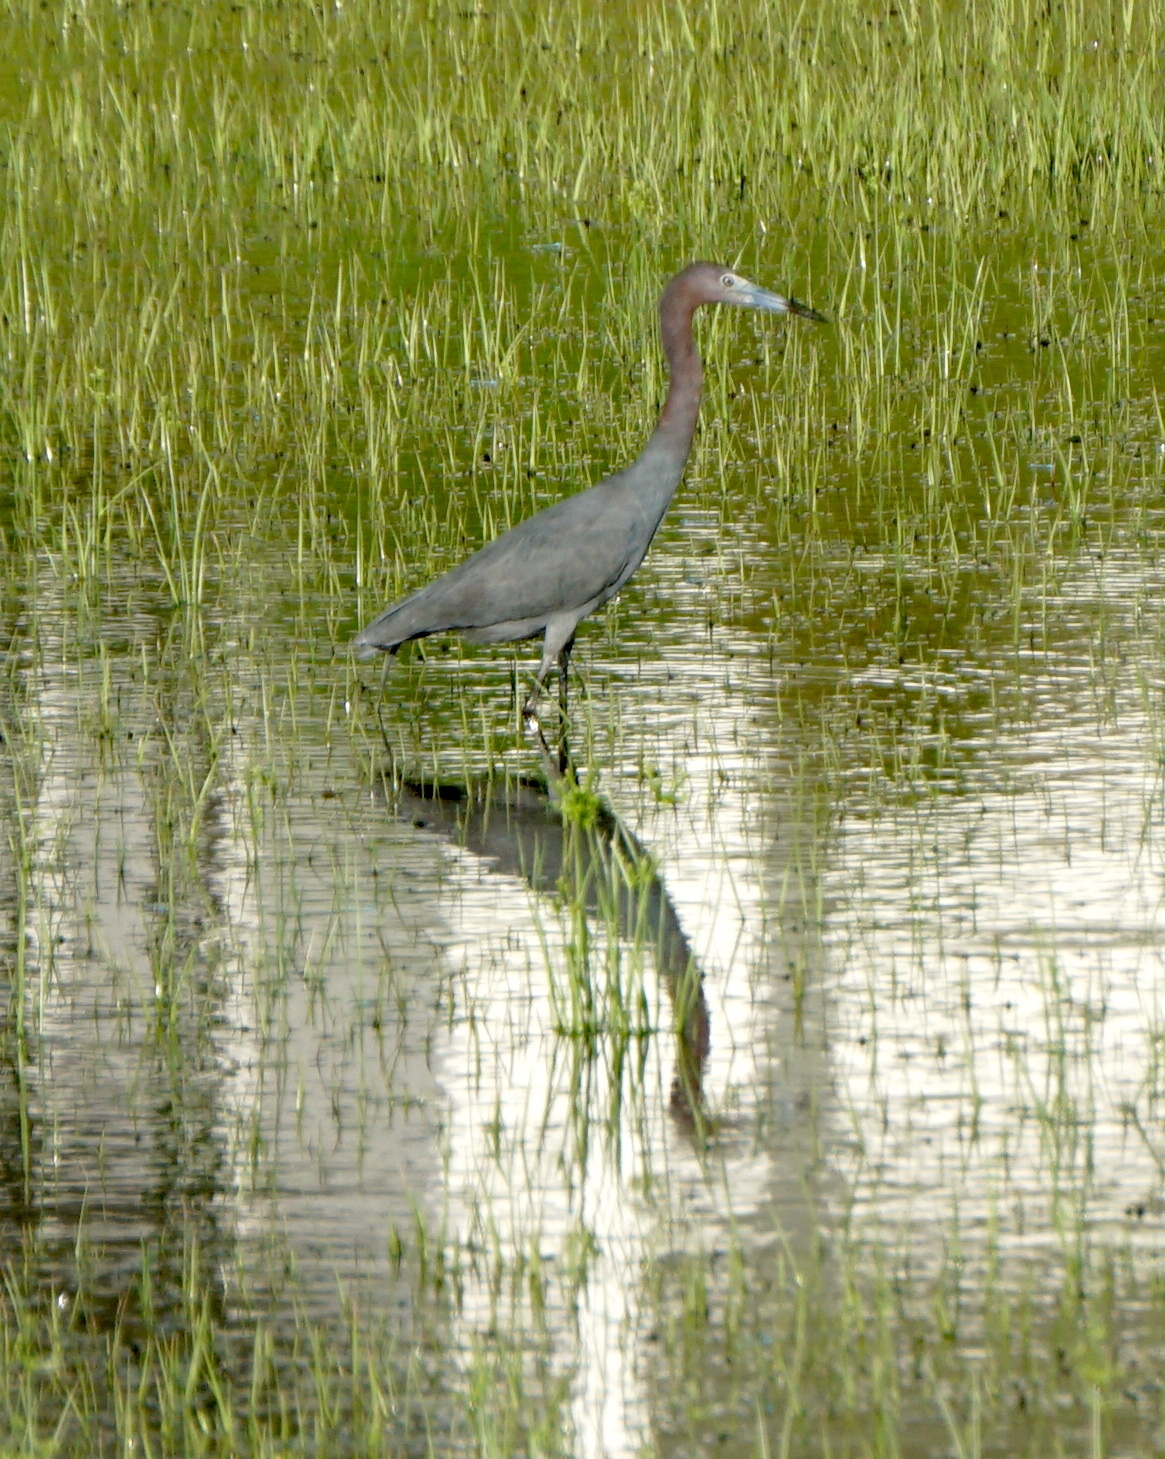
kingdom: Animalia
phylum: Chordata
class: Aves
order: Pelecaniformes
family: Ardeidae
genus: Egretta
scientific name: Egretta caerulea
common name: Little blue heron
